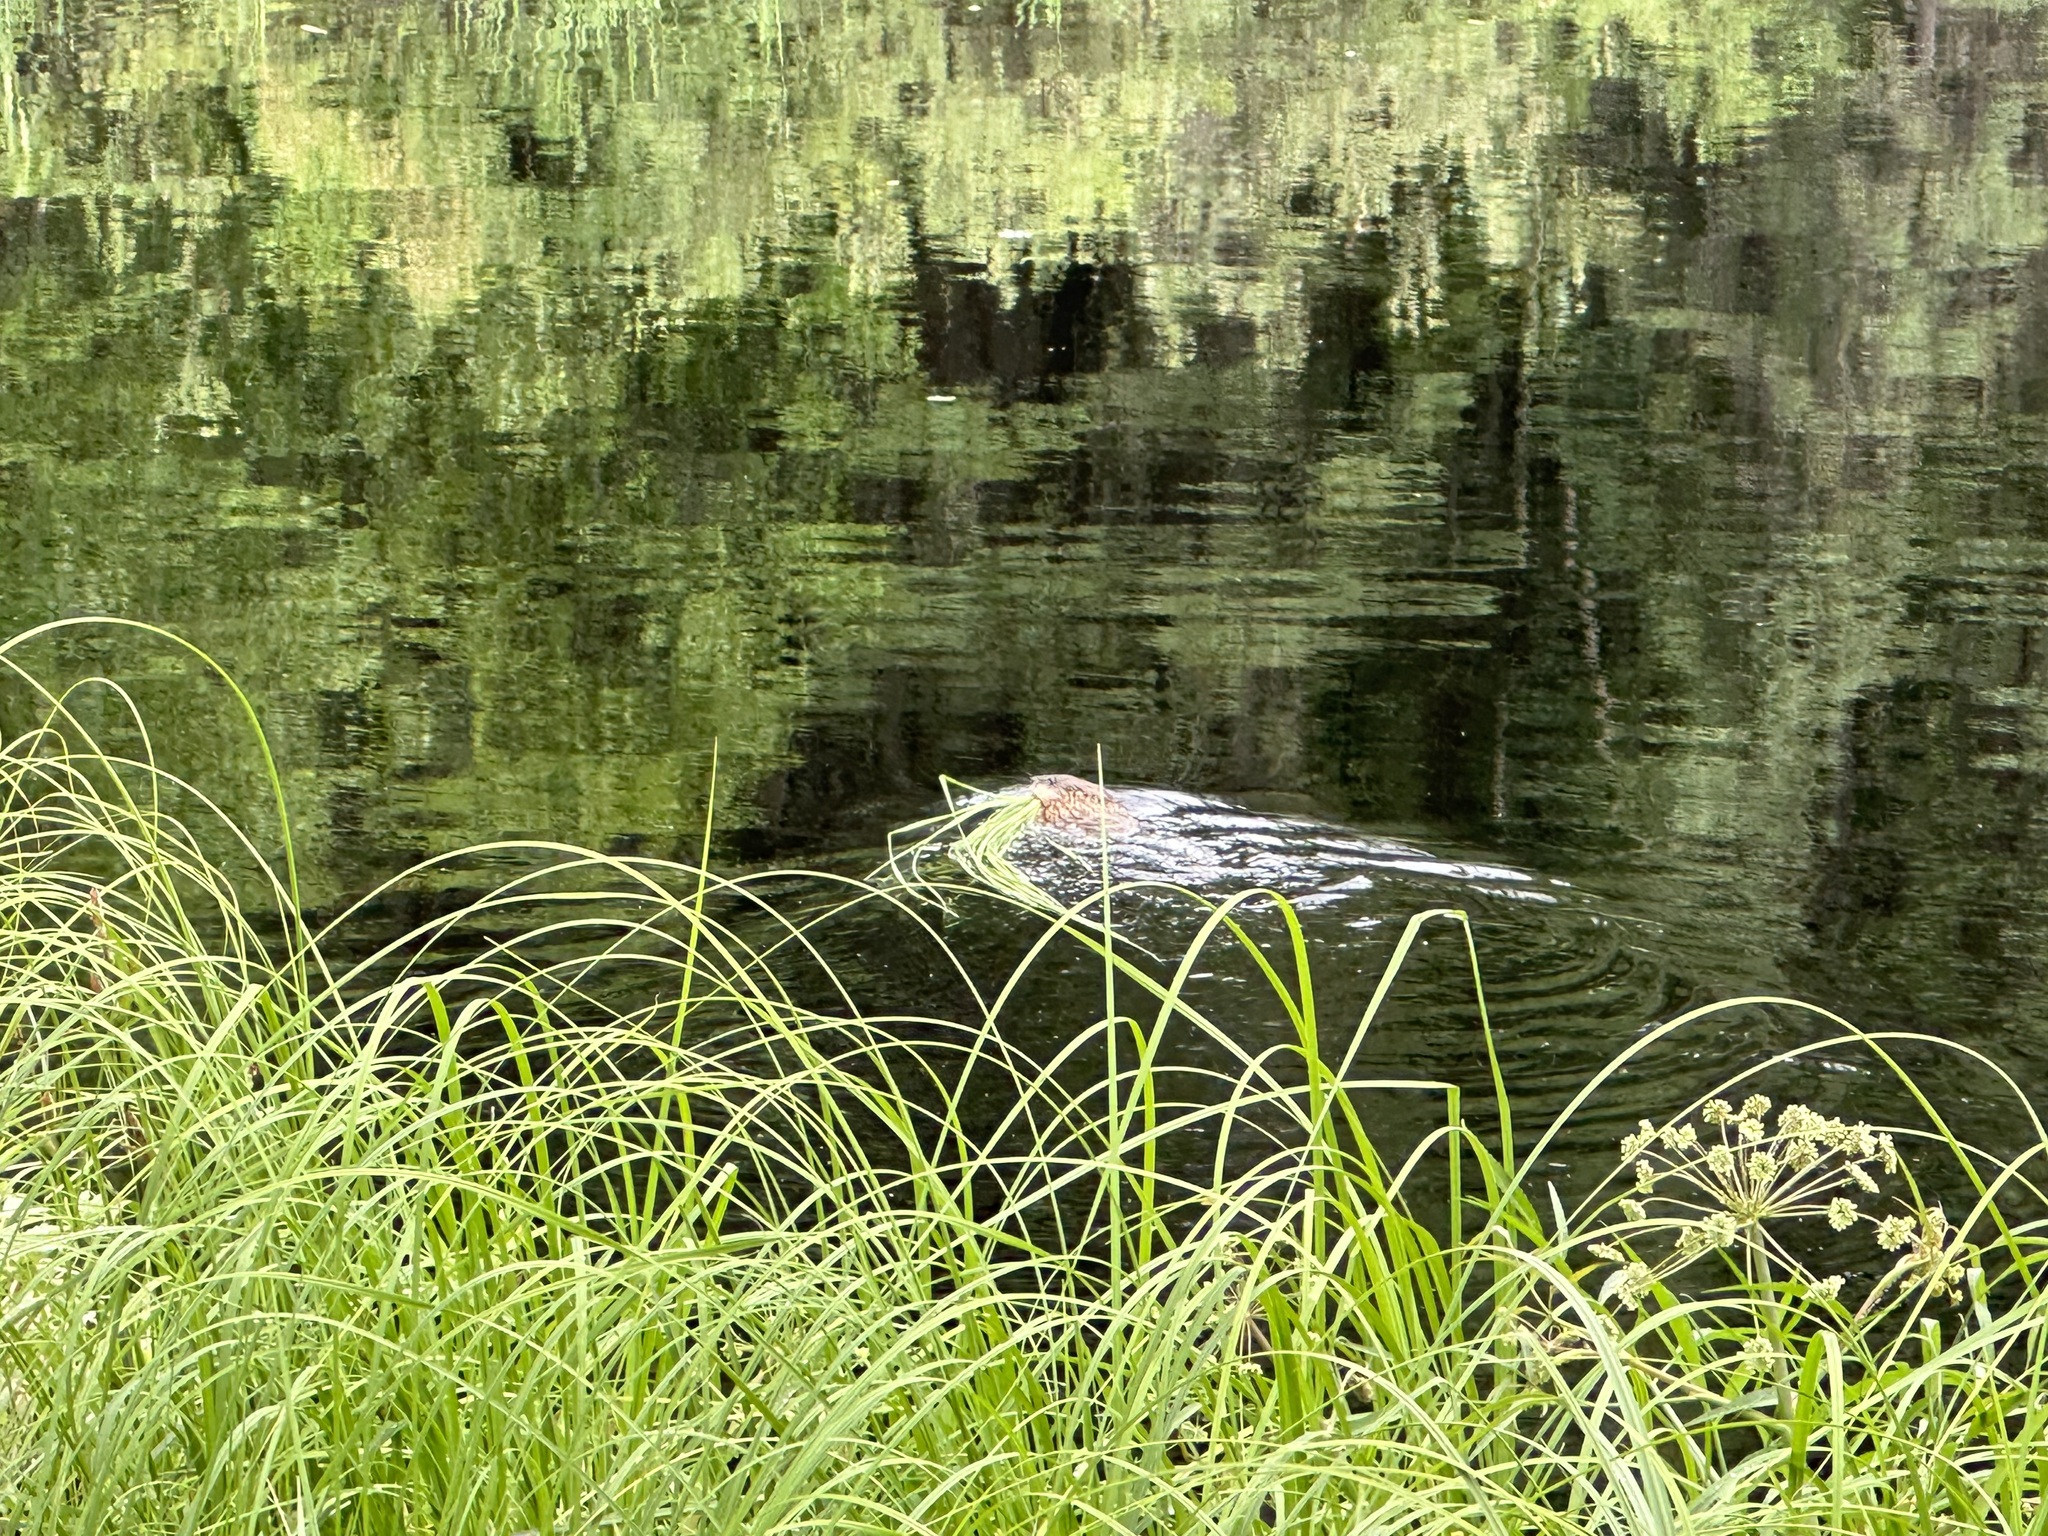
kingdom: Animalia
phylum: Chordata
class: Mammalia
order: Rodentia
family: Cricetidae
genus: Ondatra
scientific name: Ondatra zibethicus
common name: Muskrat
